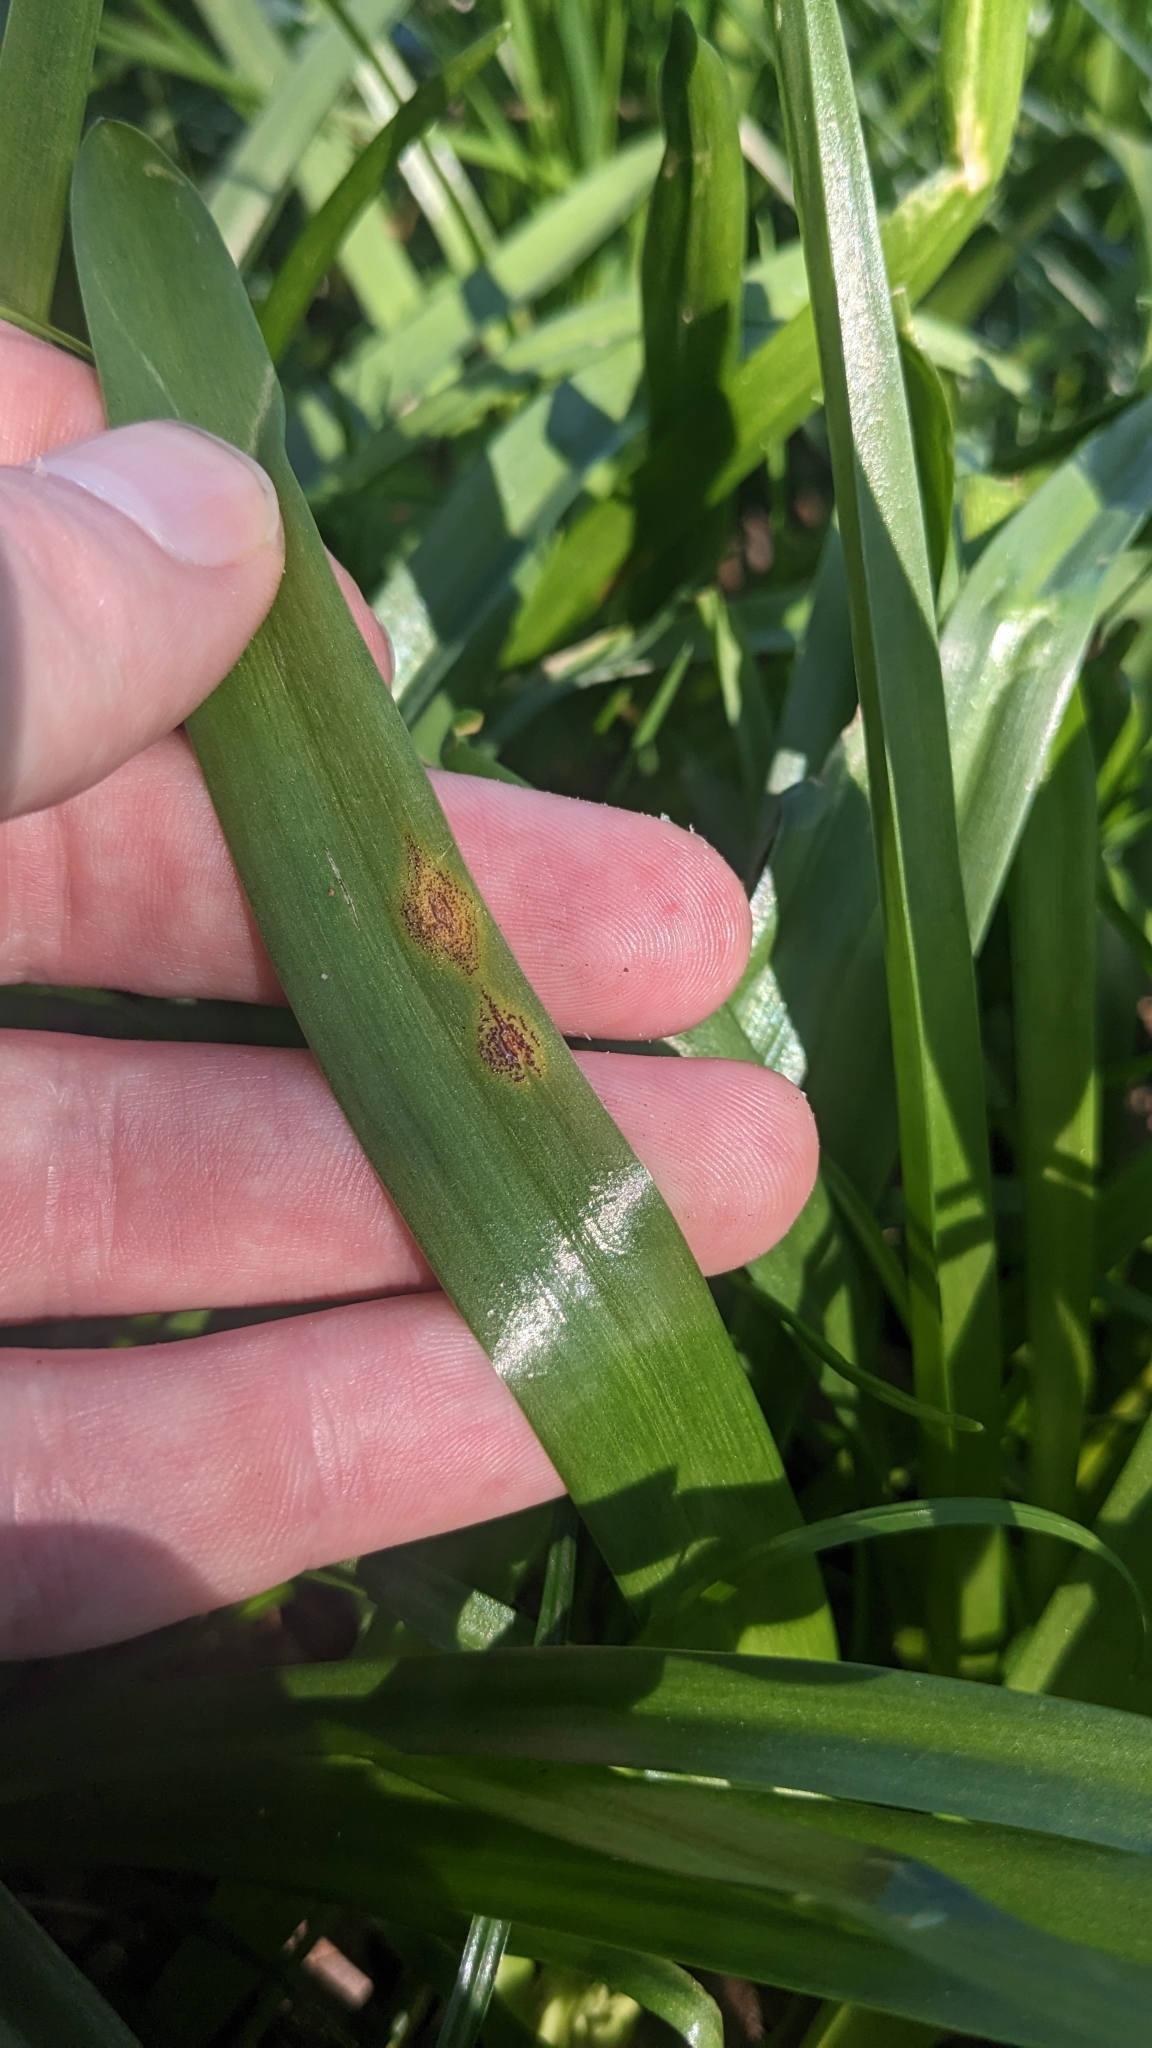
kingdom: Fungi
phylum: Basidiomycota
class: Pucciniomycetes
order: Pucciniales
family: Pucciniaceae
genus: Uromyces
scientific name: Uromyces hyacinthi
